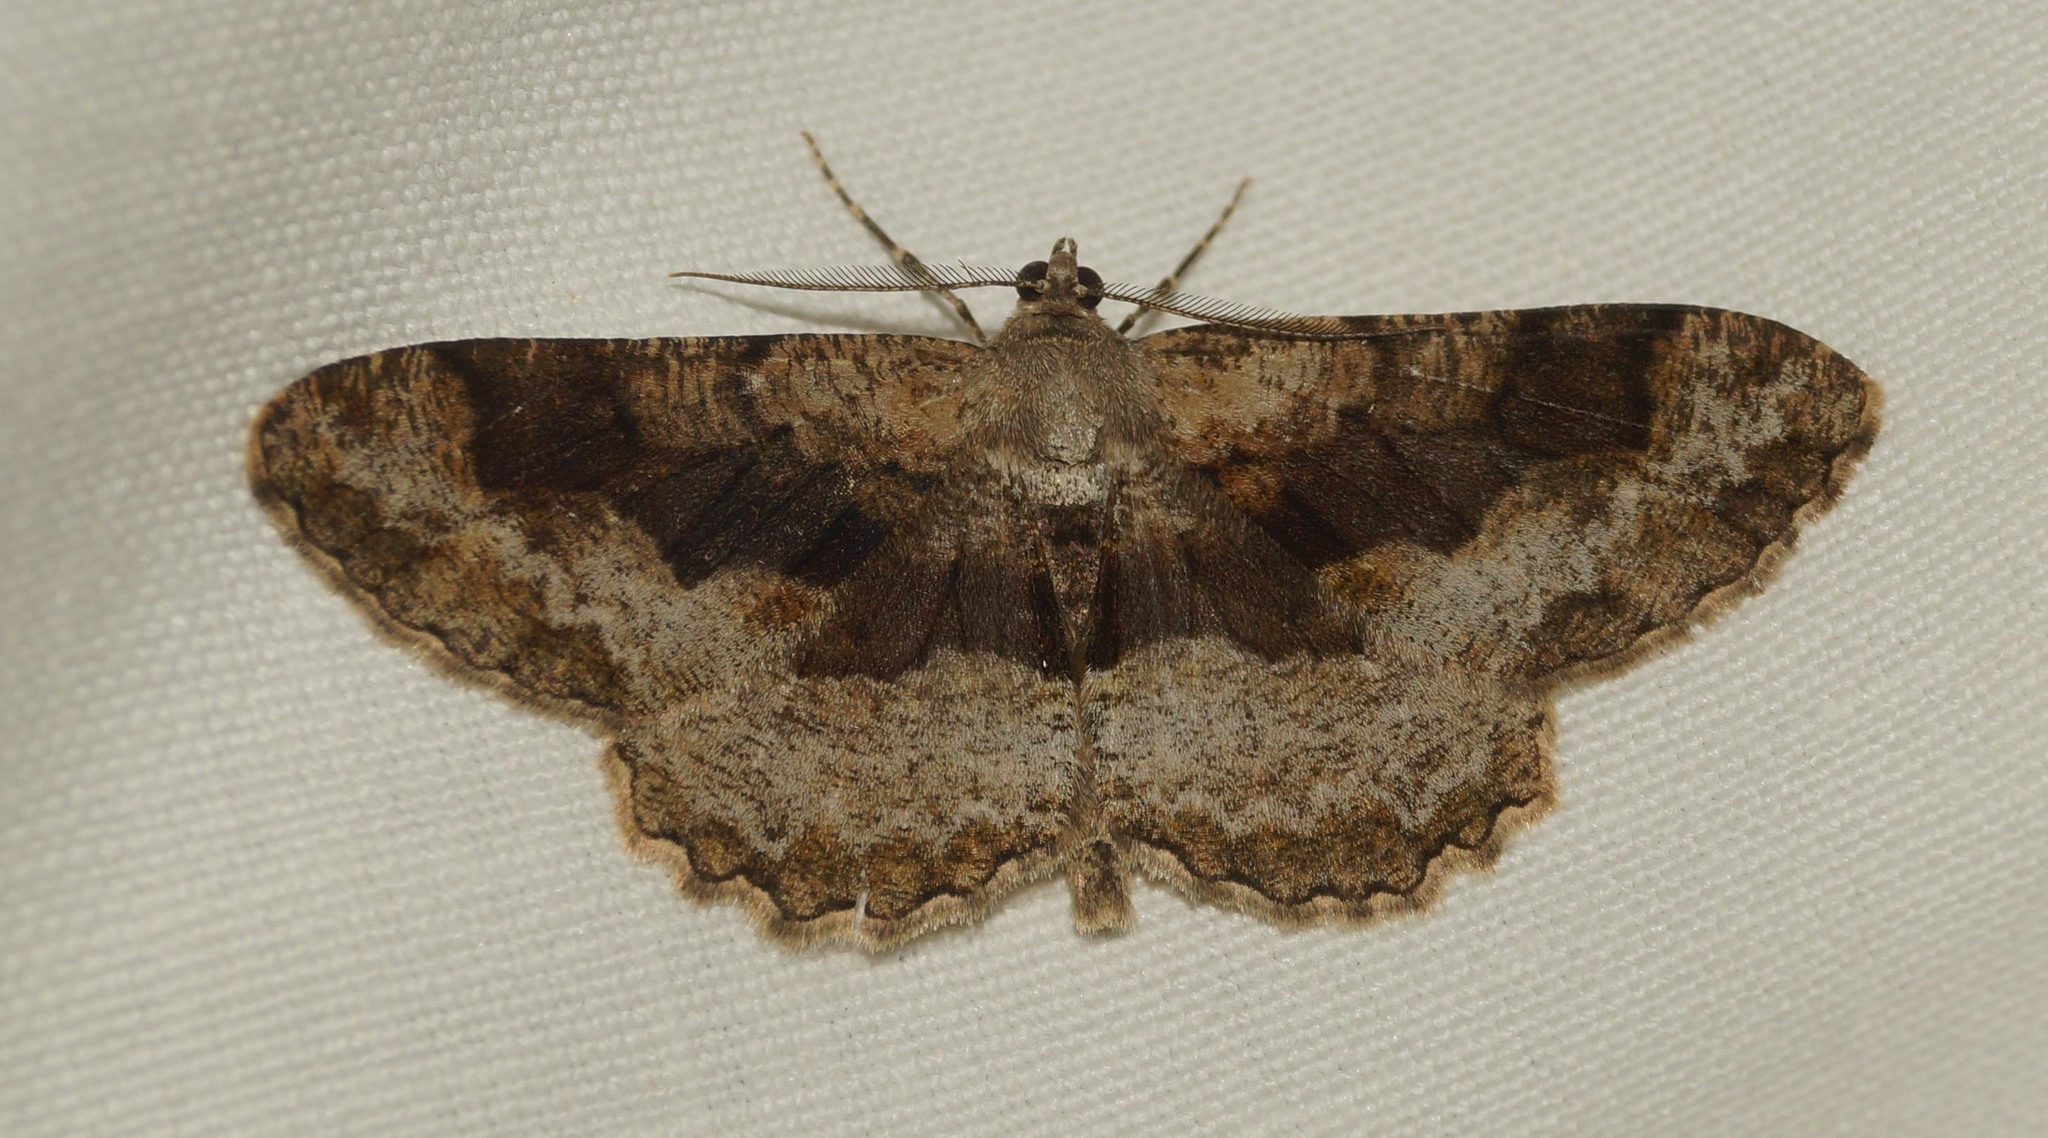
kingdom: Animalia
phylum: Arthropoda
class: Insecta
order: Lepidoptera
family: Geometridae
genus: Alcis
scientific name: Alcis repandata
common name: Mottled beauty
